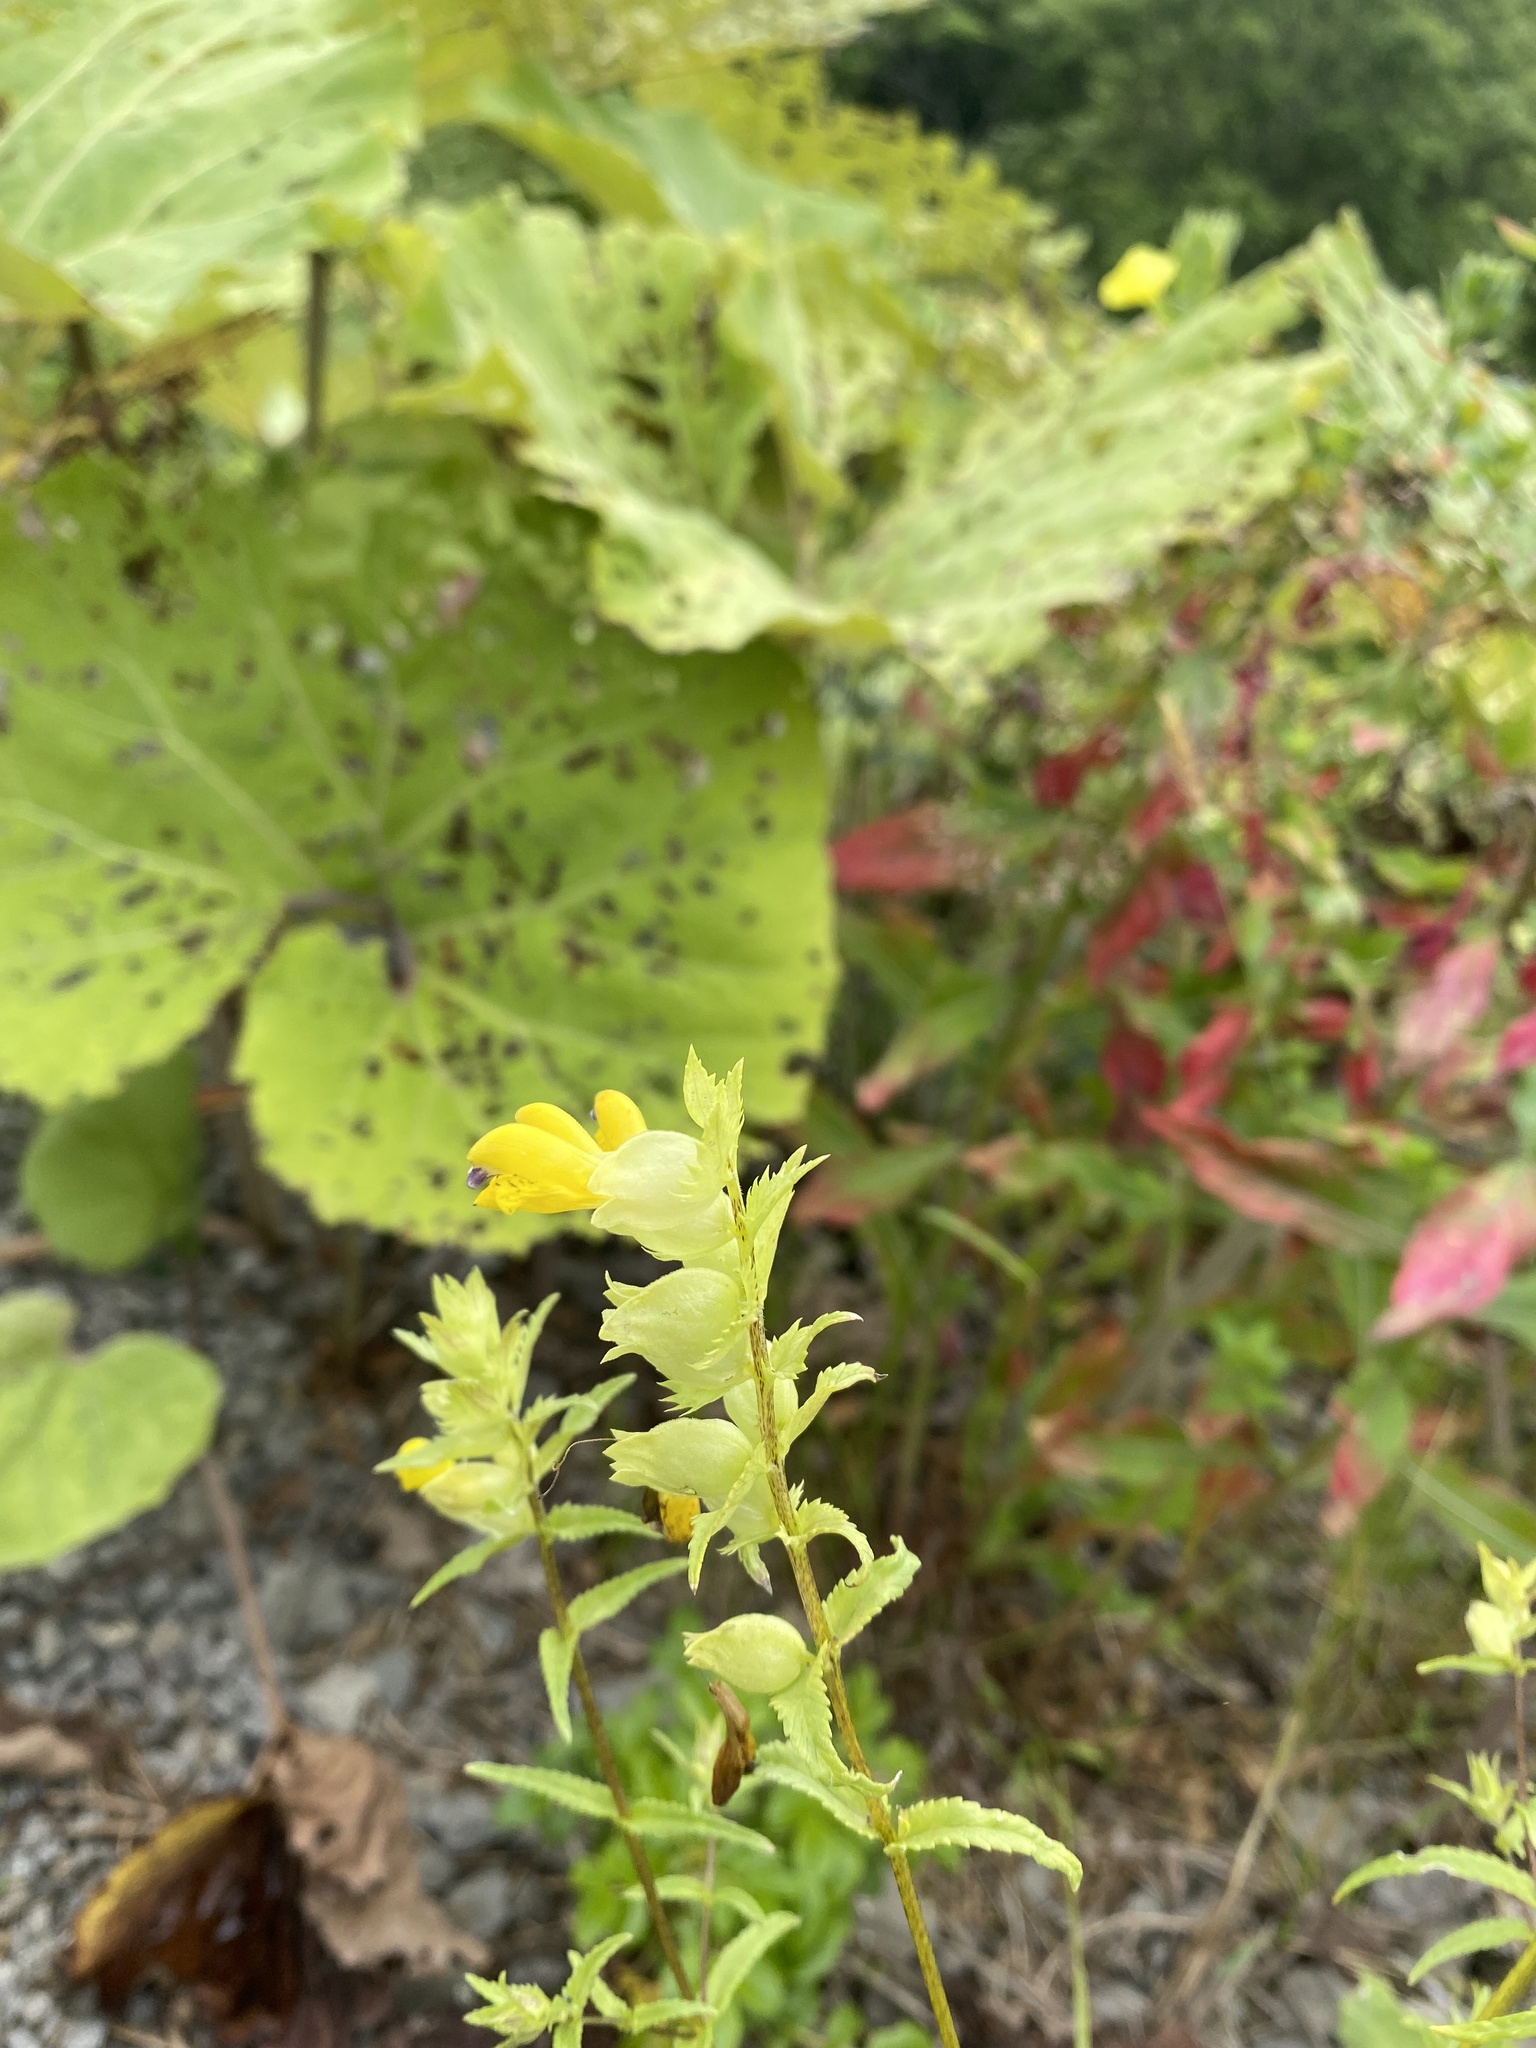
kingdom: Plantae
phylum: Tracheophyta
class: Magnoliopsida
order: Lamiales
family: Orobanchaceae
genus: Rhinanthus
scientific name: Rhinanthus serotinus
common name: Late-flowering yellow rattle
